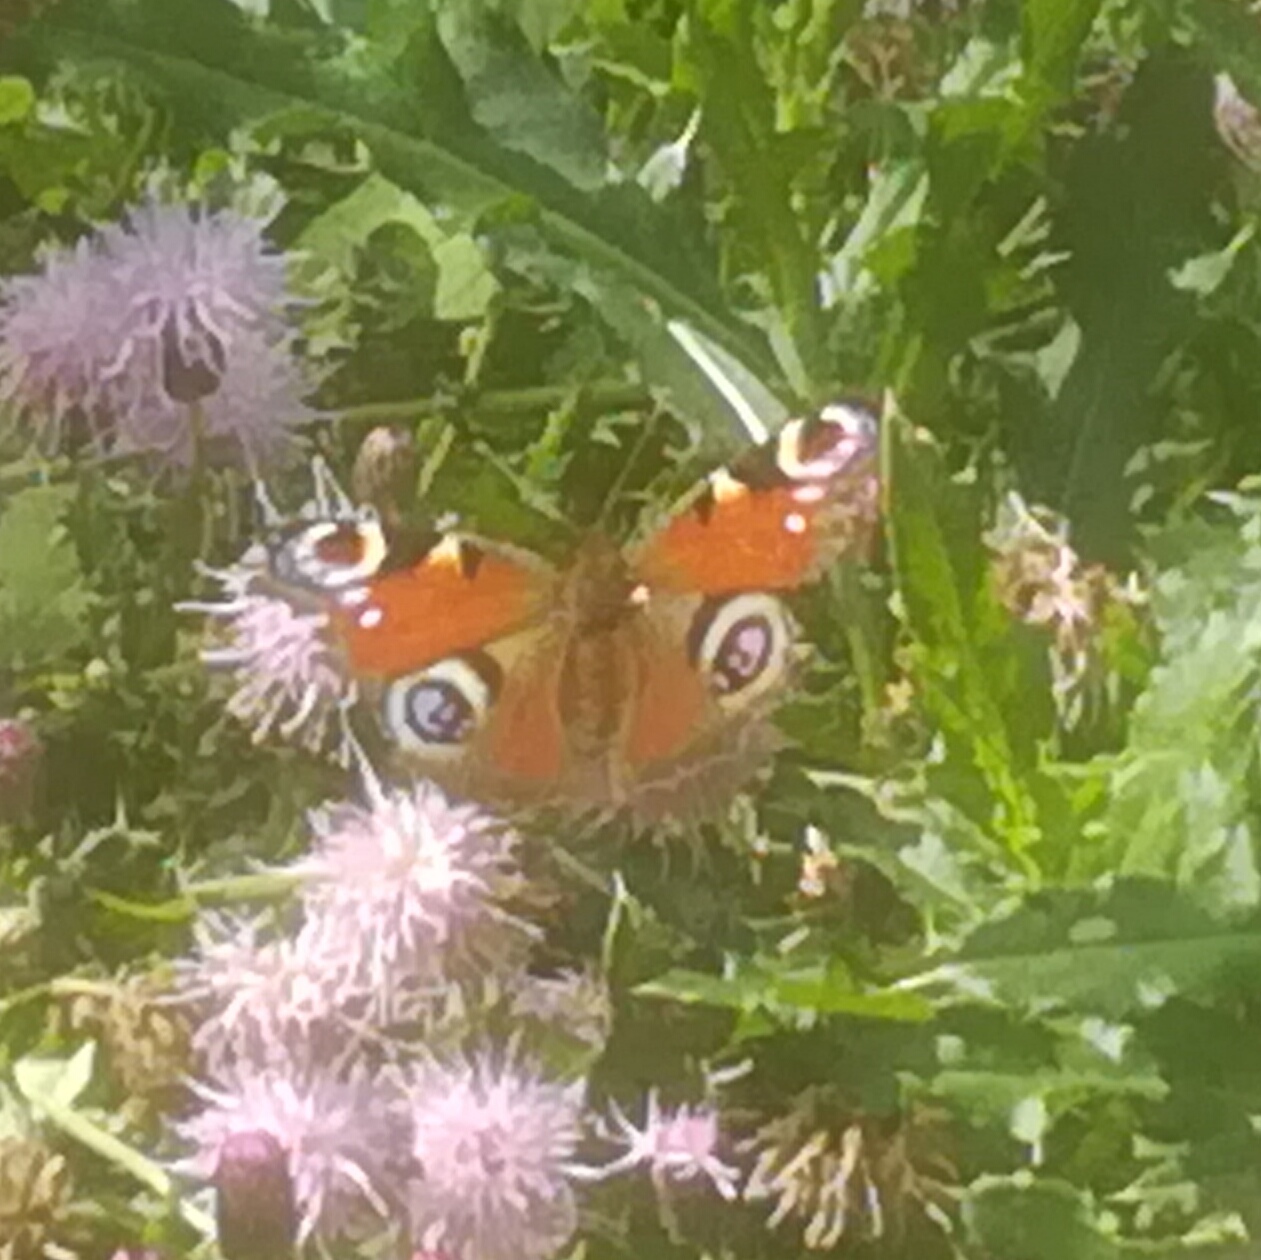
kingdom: Animalia
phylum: Arthropoda
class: Insecta
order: Lepidoptera
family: Nymphalidae
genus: Aglais
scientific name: Aglais io
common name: Peacock
